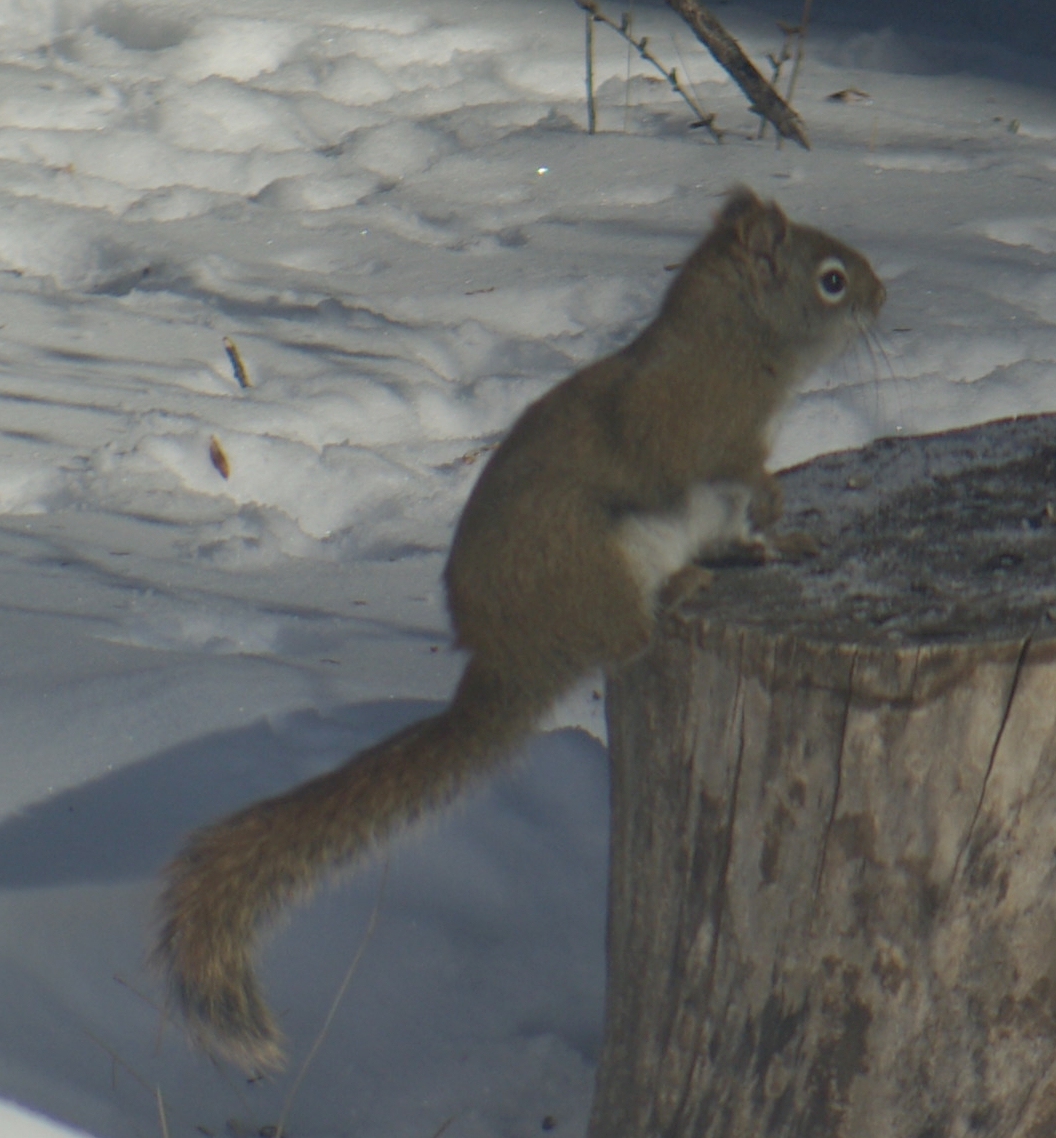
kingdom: Animalia
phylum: Chordata
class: Mammalia
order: Rodentia
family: Sciuridae
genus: Tamiasciurus
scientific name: Tamiasciurus hudsonicus
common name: Red squirrel
